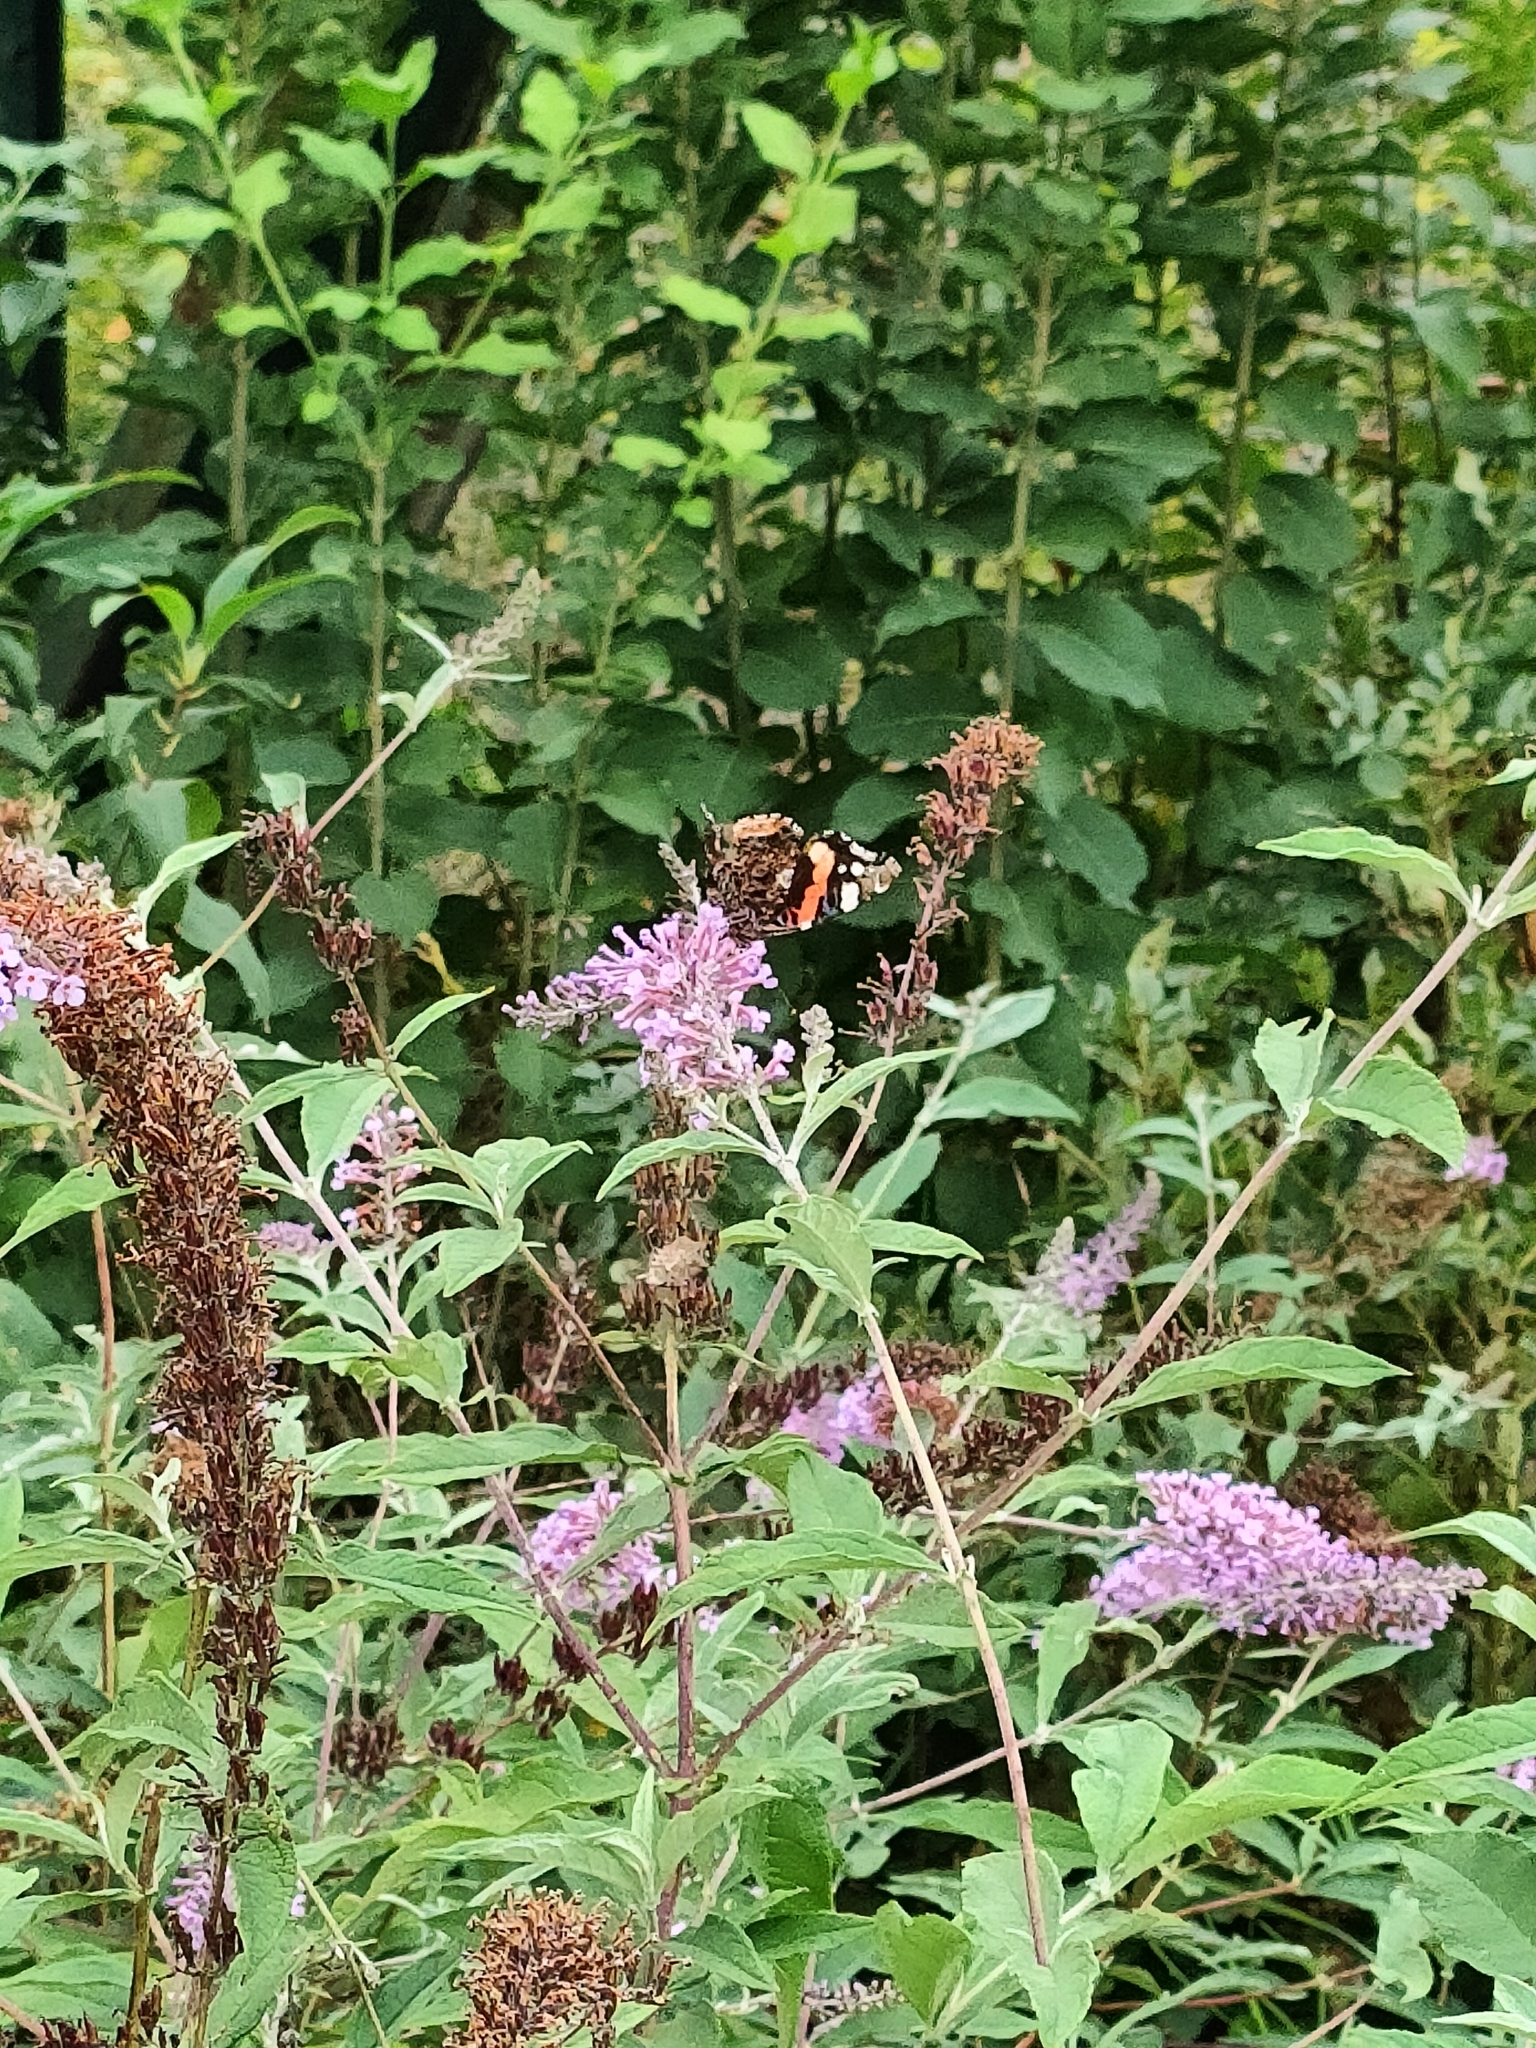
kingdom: Animalia
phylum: Arthropoda
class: Insecta
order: Lepidoptera
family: Nymphalidae
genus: Vanessa
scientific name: Vanessa atalanta
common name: Red admiral
